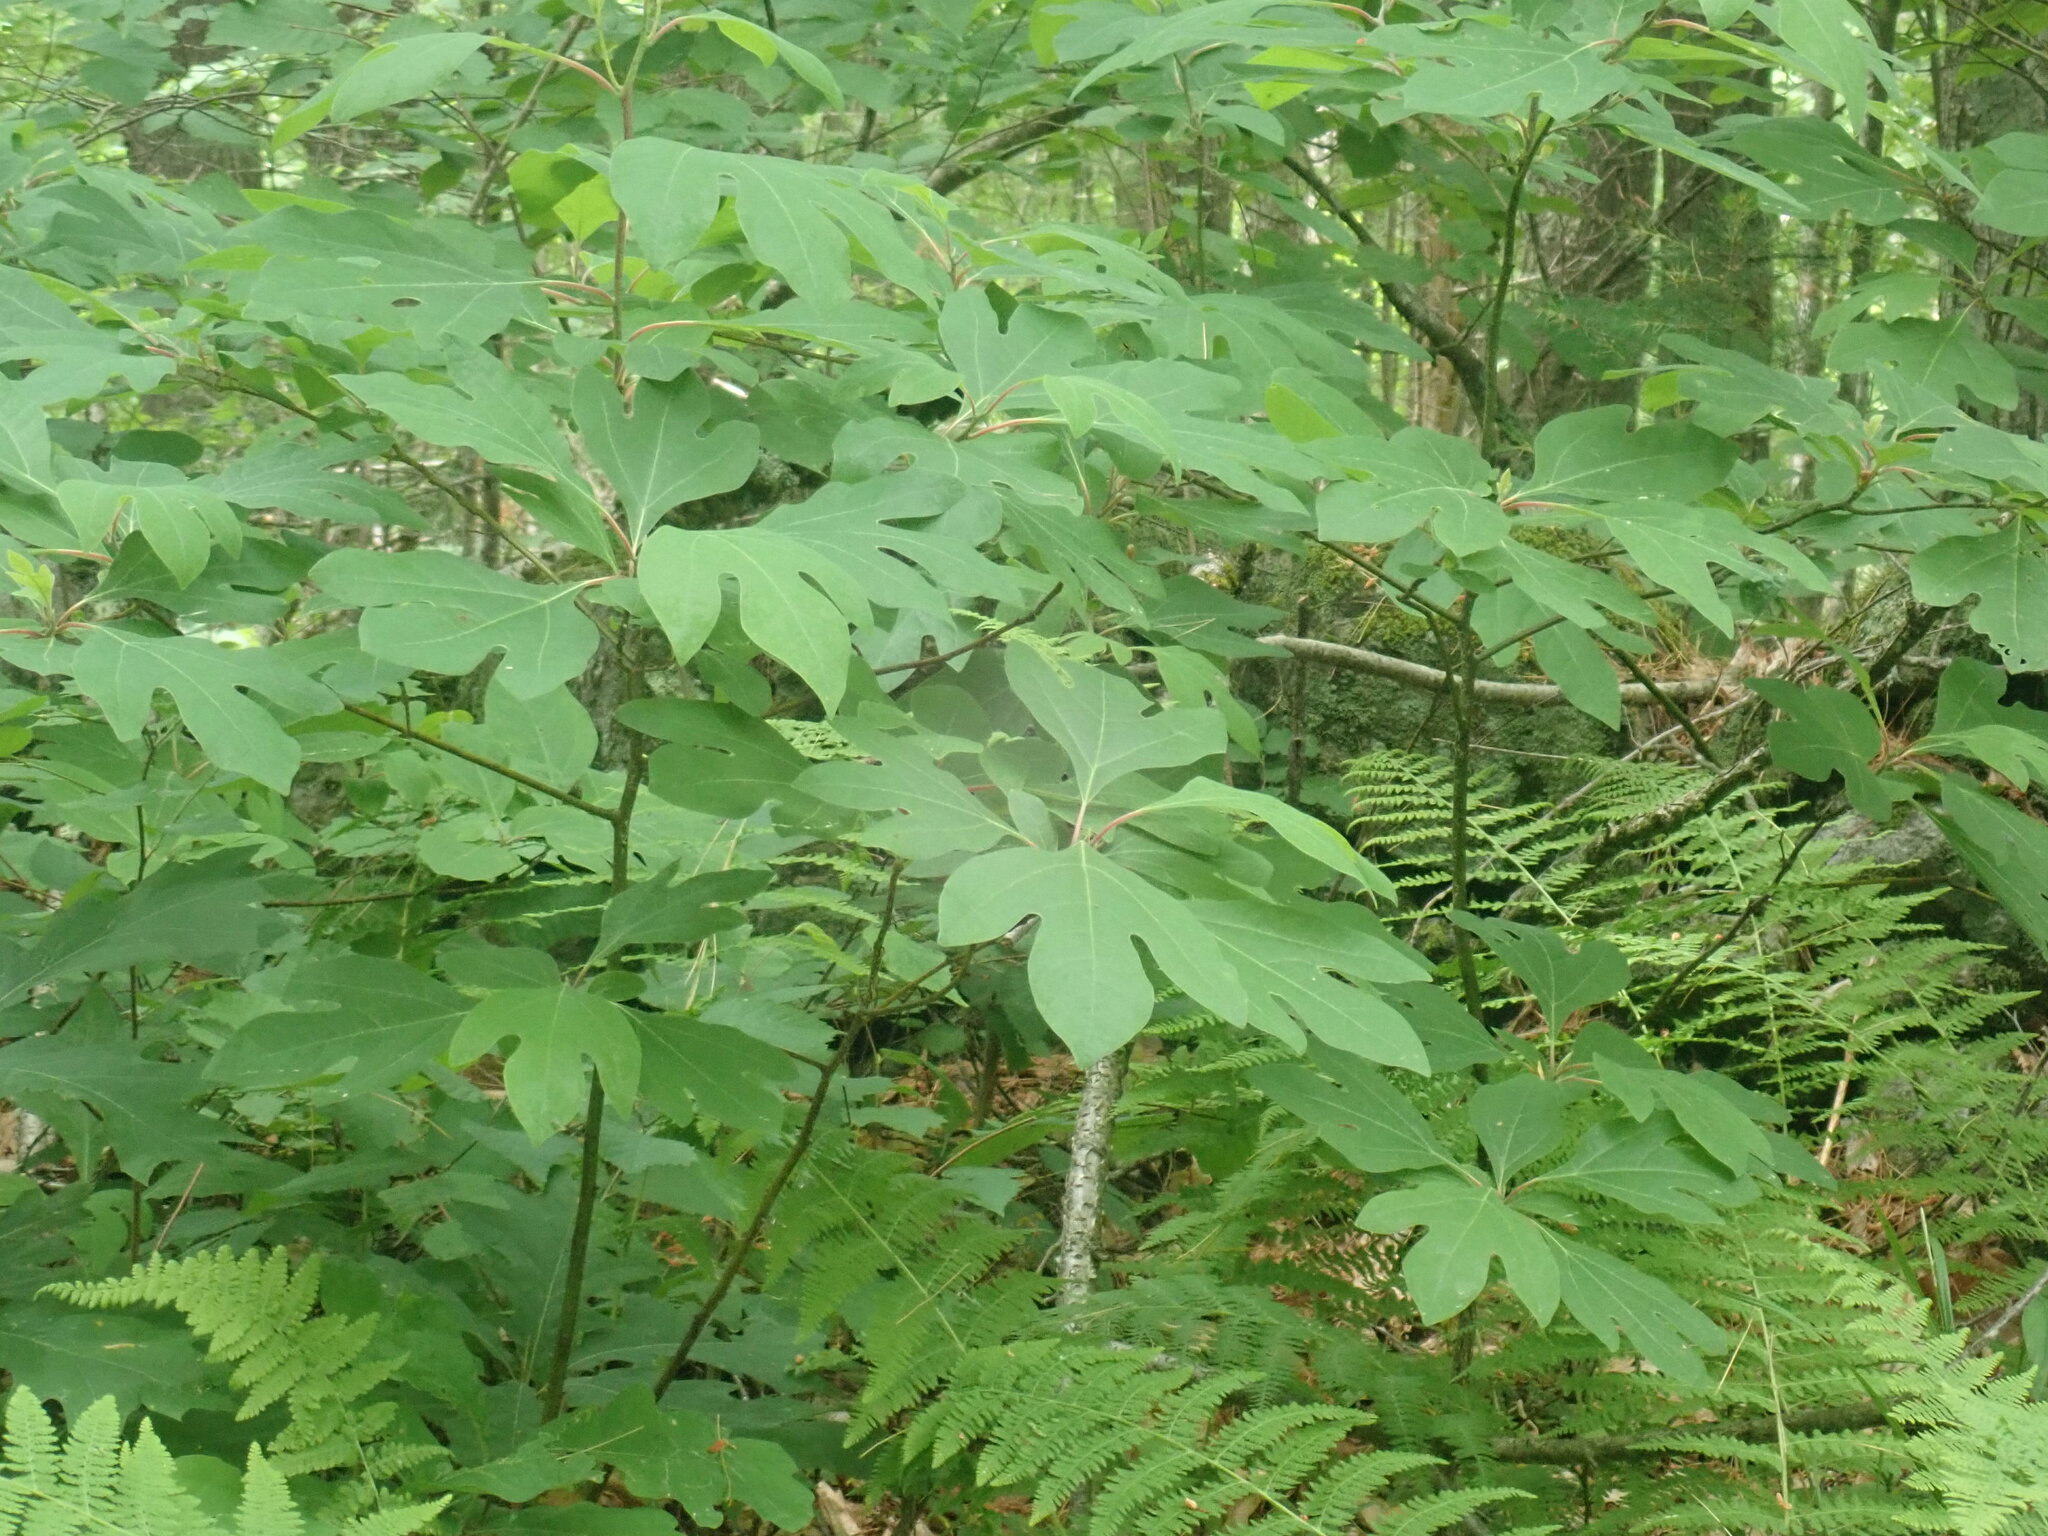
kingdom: Plantae
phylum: Tracheophyta
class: Magnoliopsida
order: Laurales
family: Lauraceae
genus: Sassafras
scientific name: Sassafras albidum
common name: Sassafras
